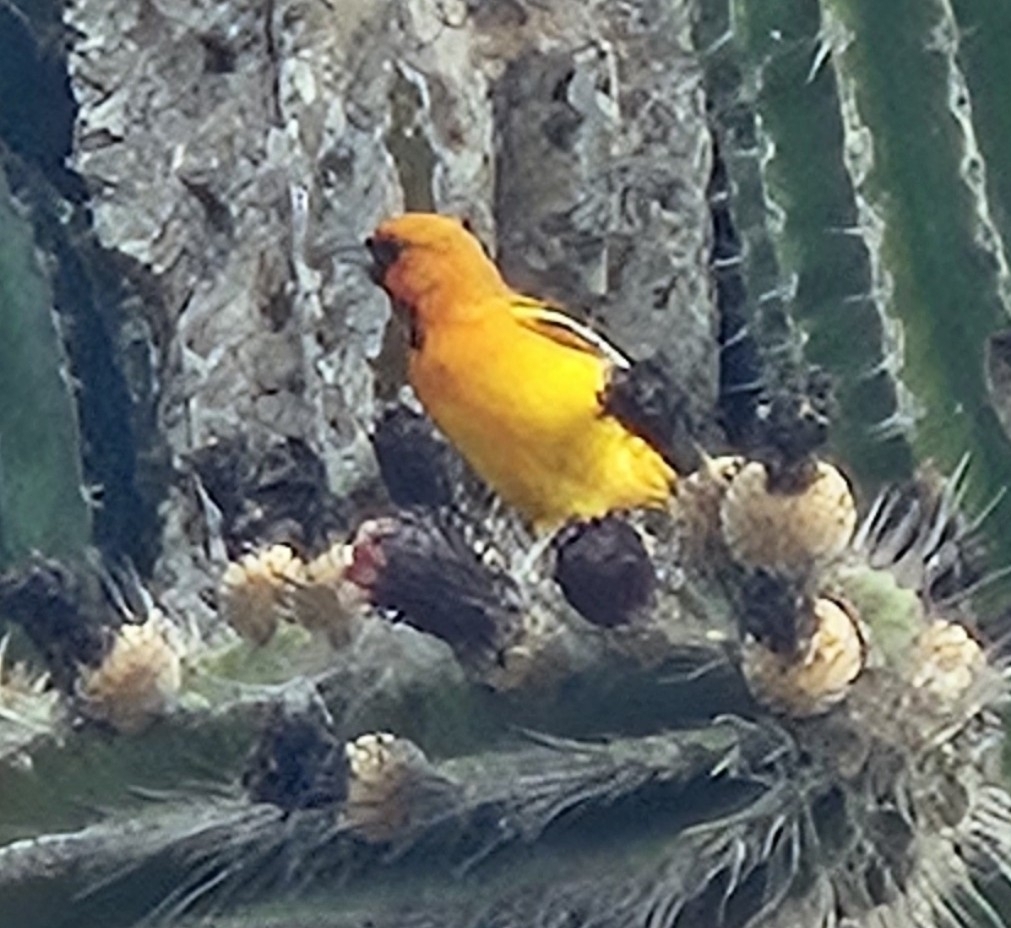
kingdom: Animalia
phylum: Chordata
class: Aves
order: Passeriformes
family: Icteridae
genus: Icterus
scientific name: Icterus pustulatus
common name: Streak-backed oriole
